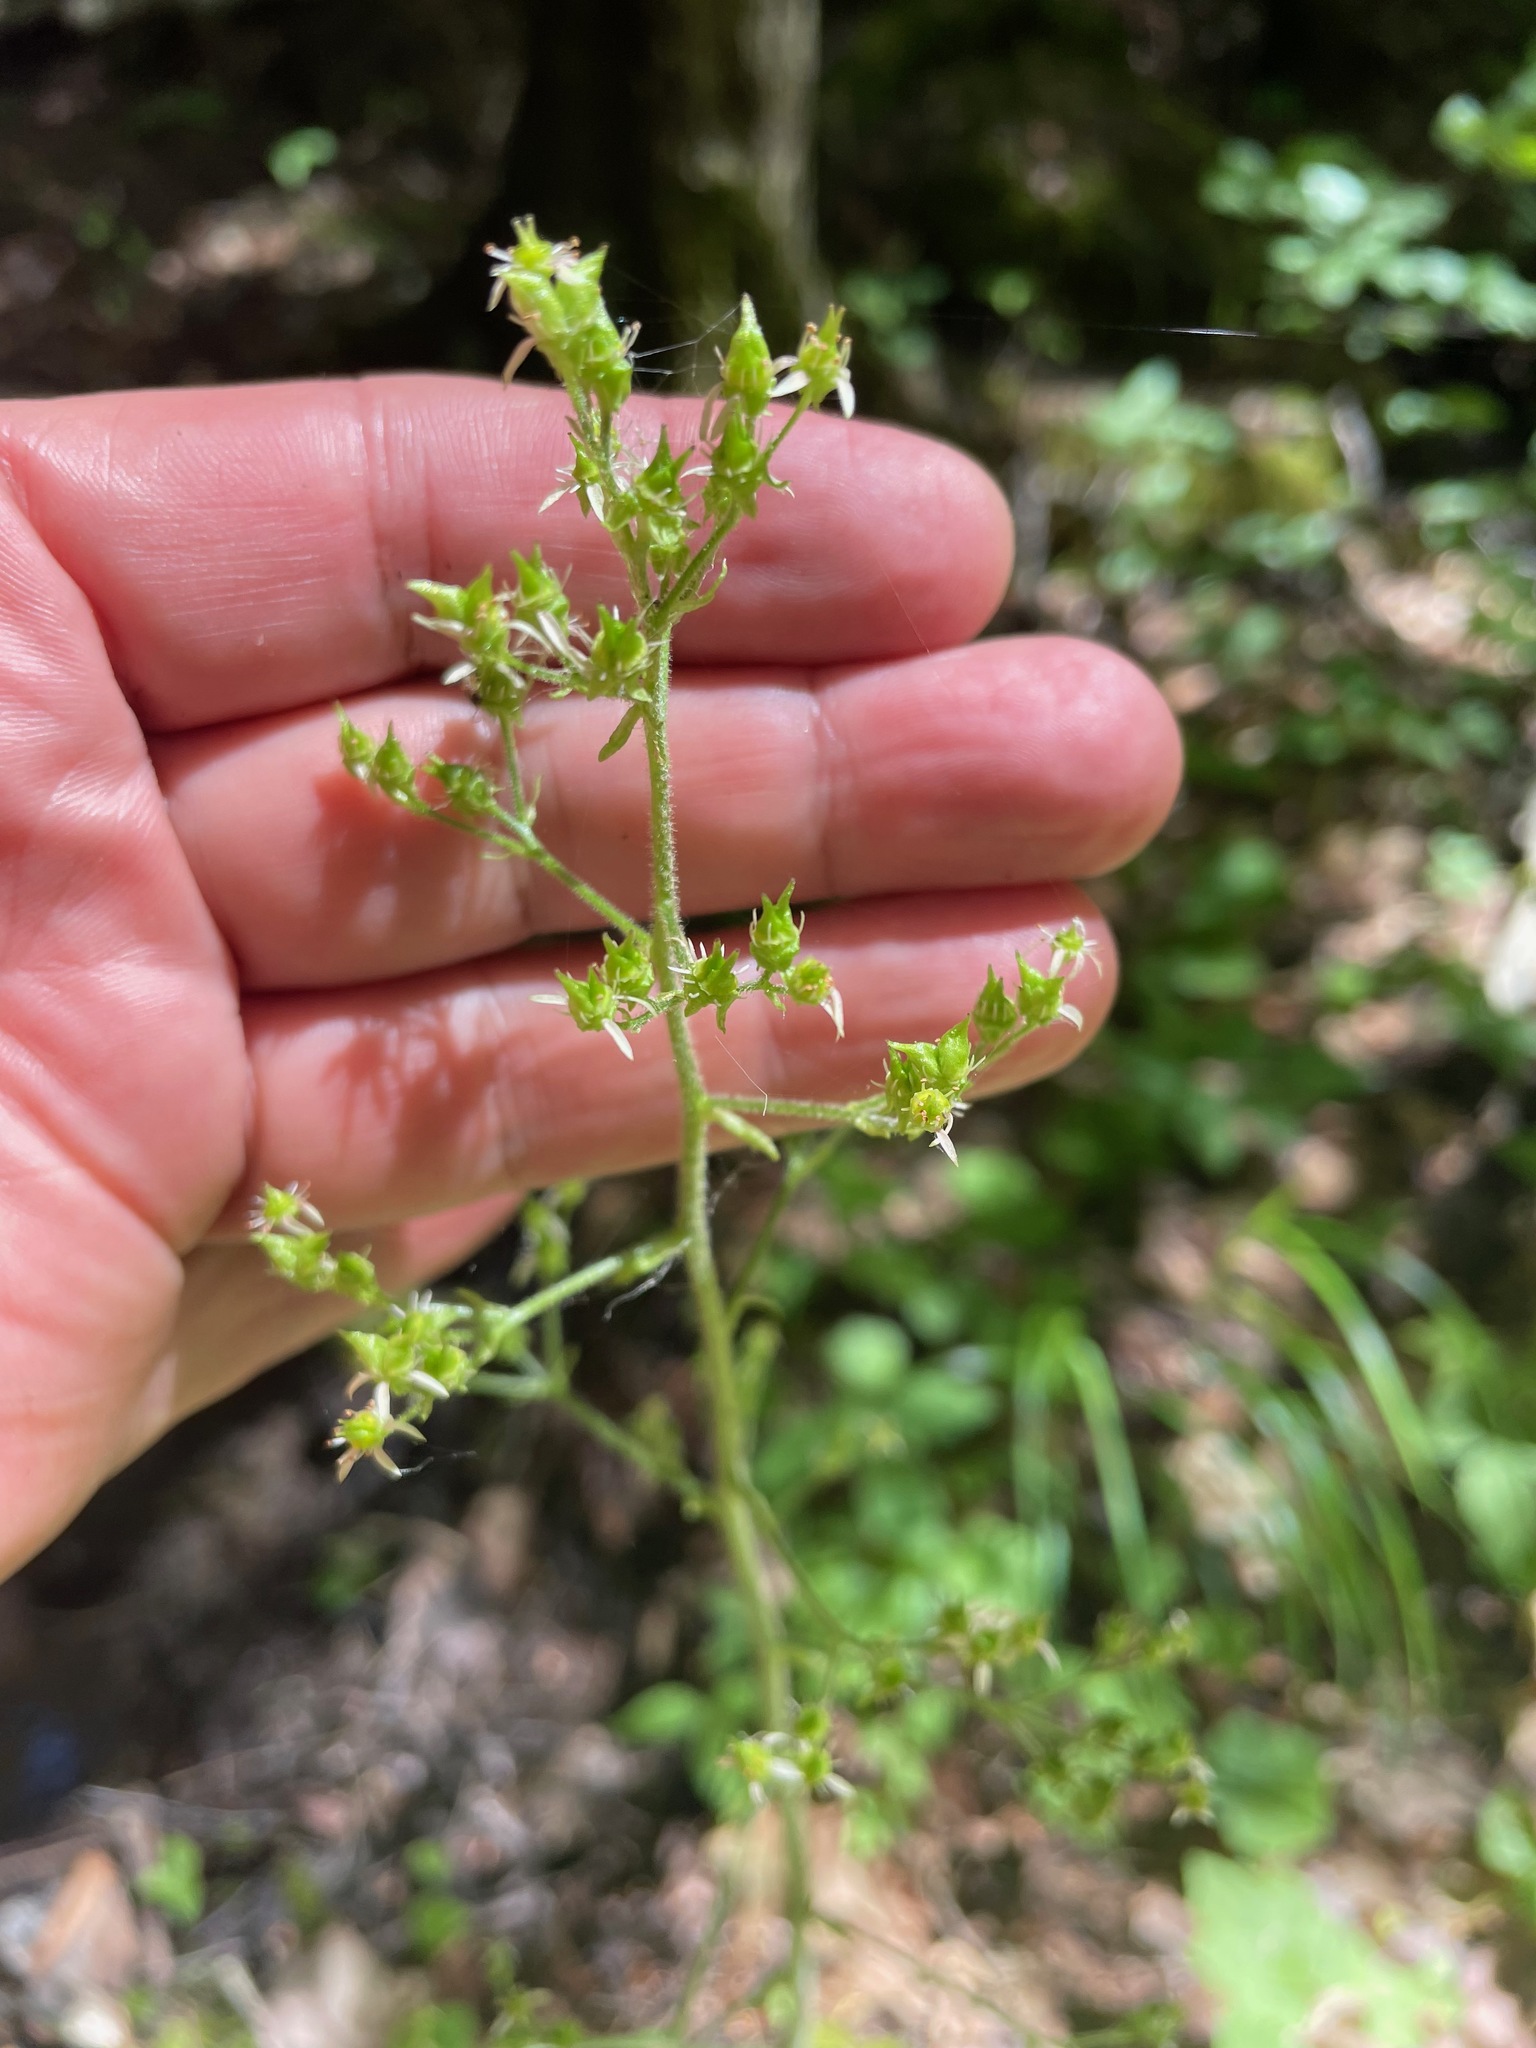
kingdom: Plantae
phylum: Tracheophyta
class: Magnoliopsida
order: Saxifragales
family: Saxifragaceae
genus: Micranthes
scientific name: Micranthes pensylvanica
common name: Marsh saxifrage
